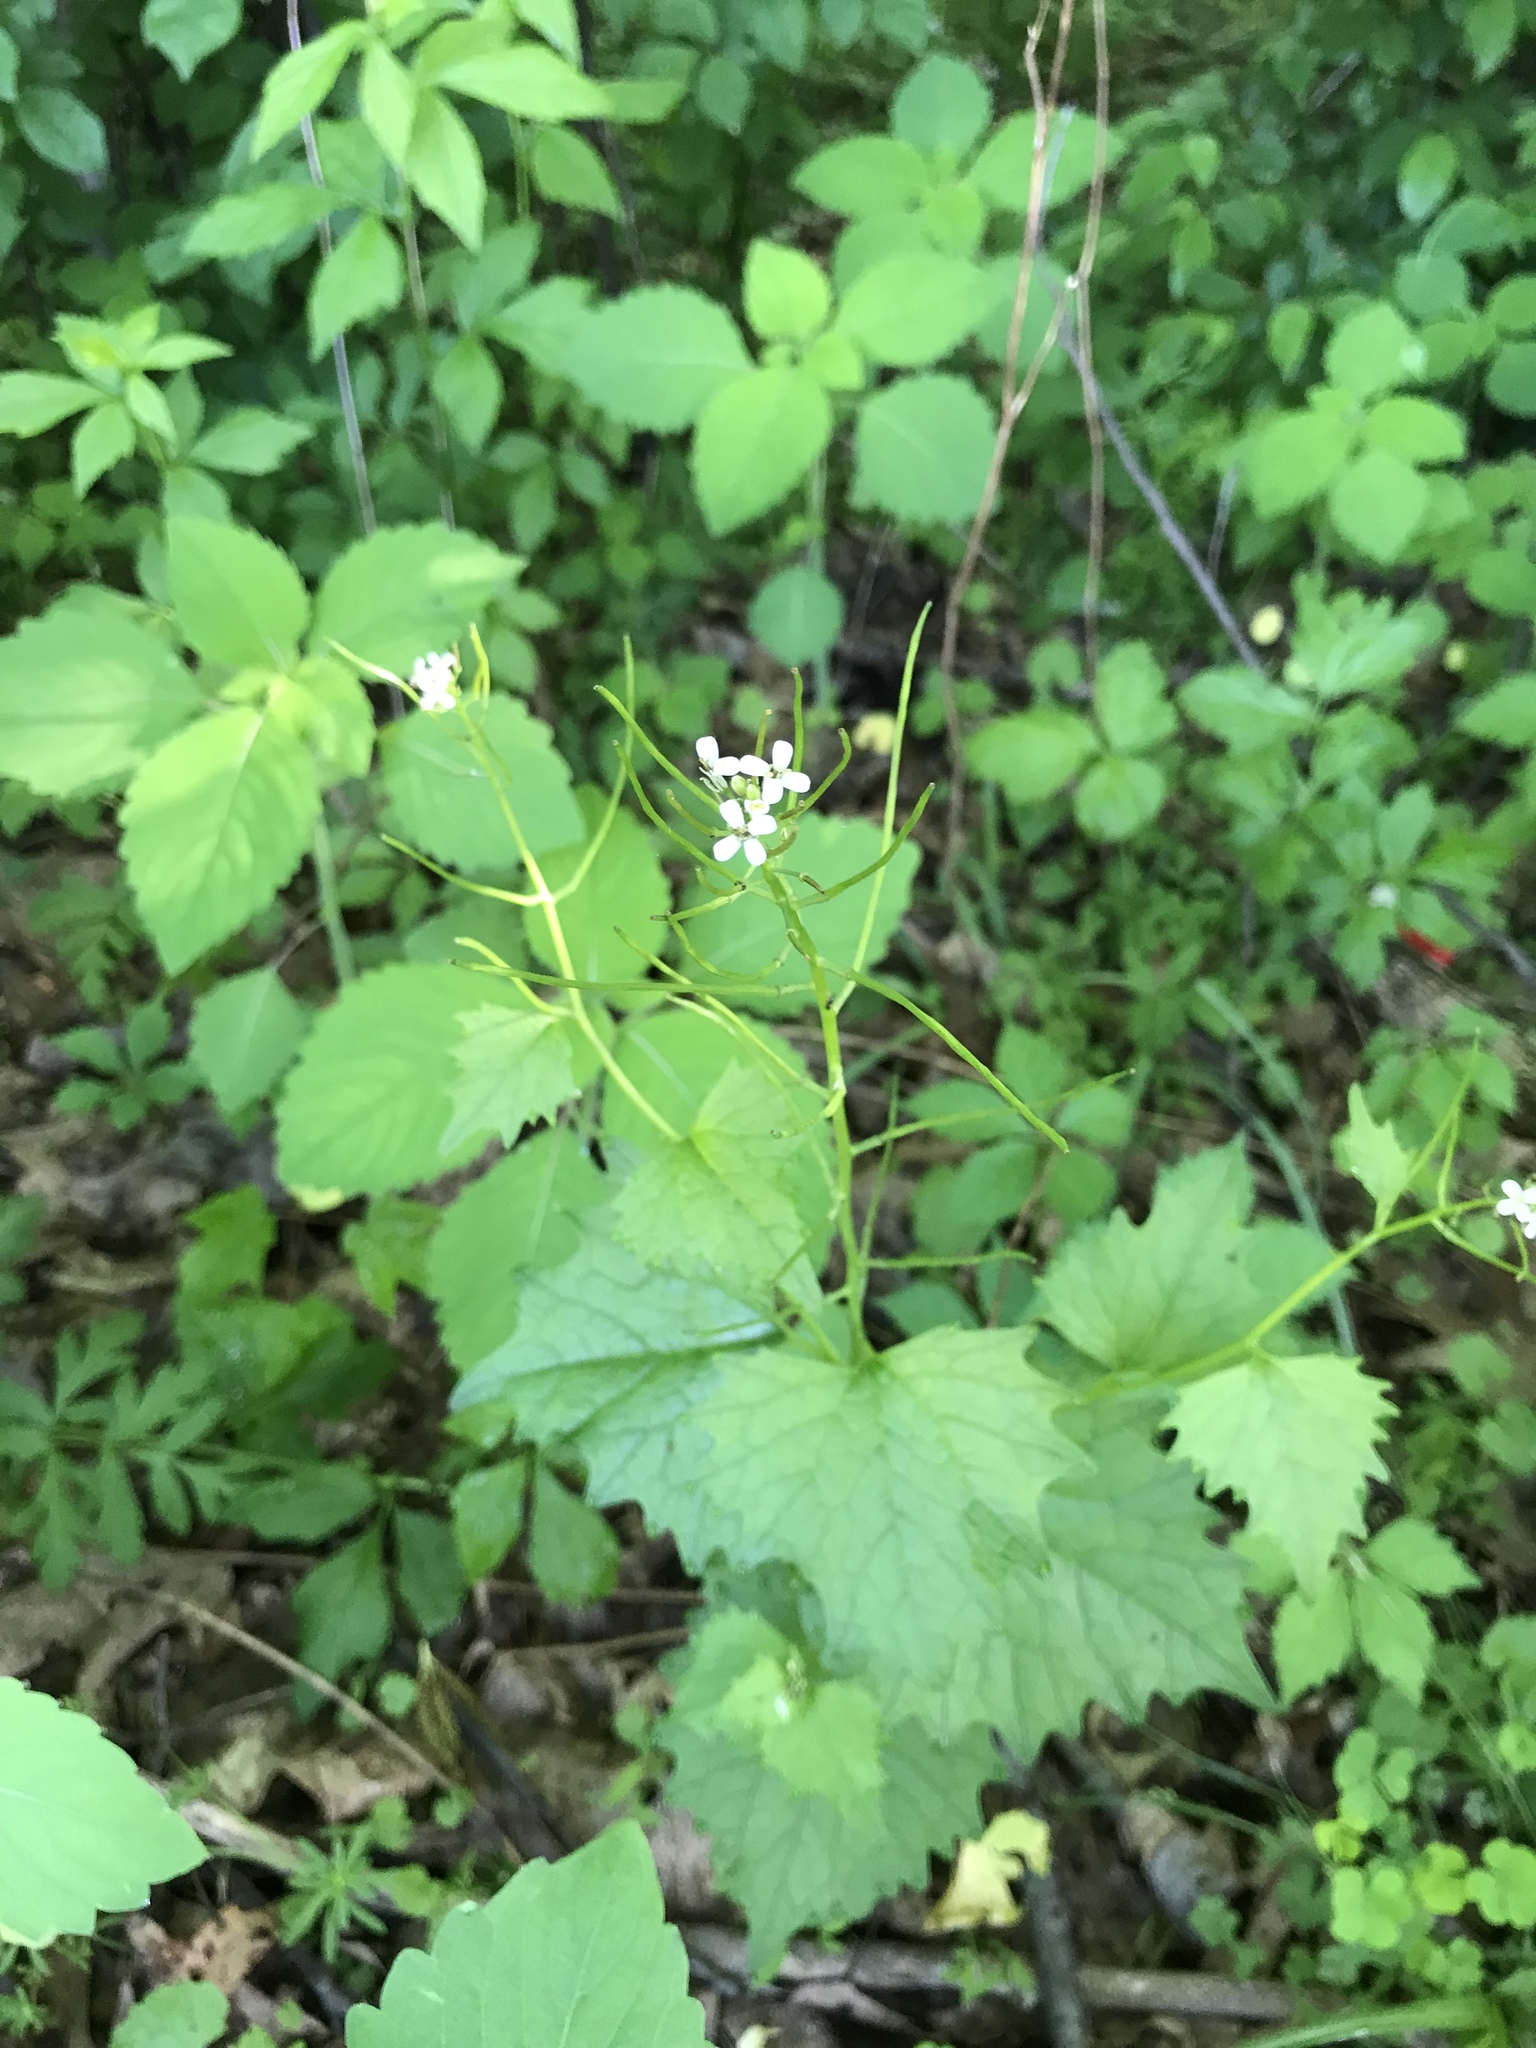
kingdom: Plantae
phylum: Tracheophyta
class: Magnoliopsida
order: Brassicales
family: Brassicaceae
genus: Alliaria
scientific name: Alliaria petiolata
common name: Garlic mustard
